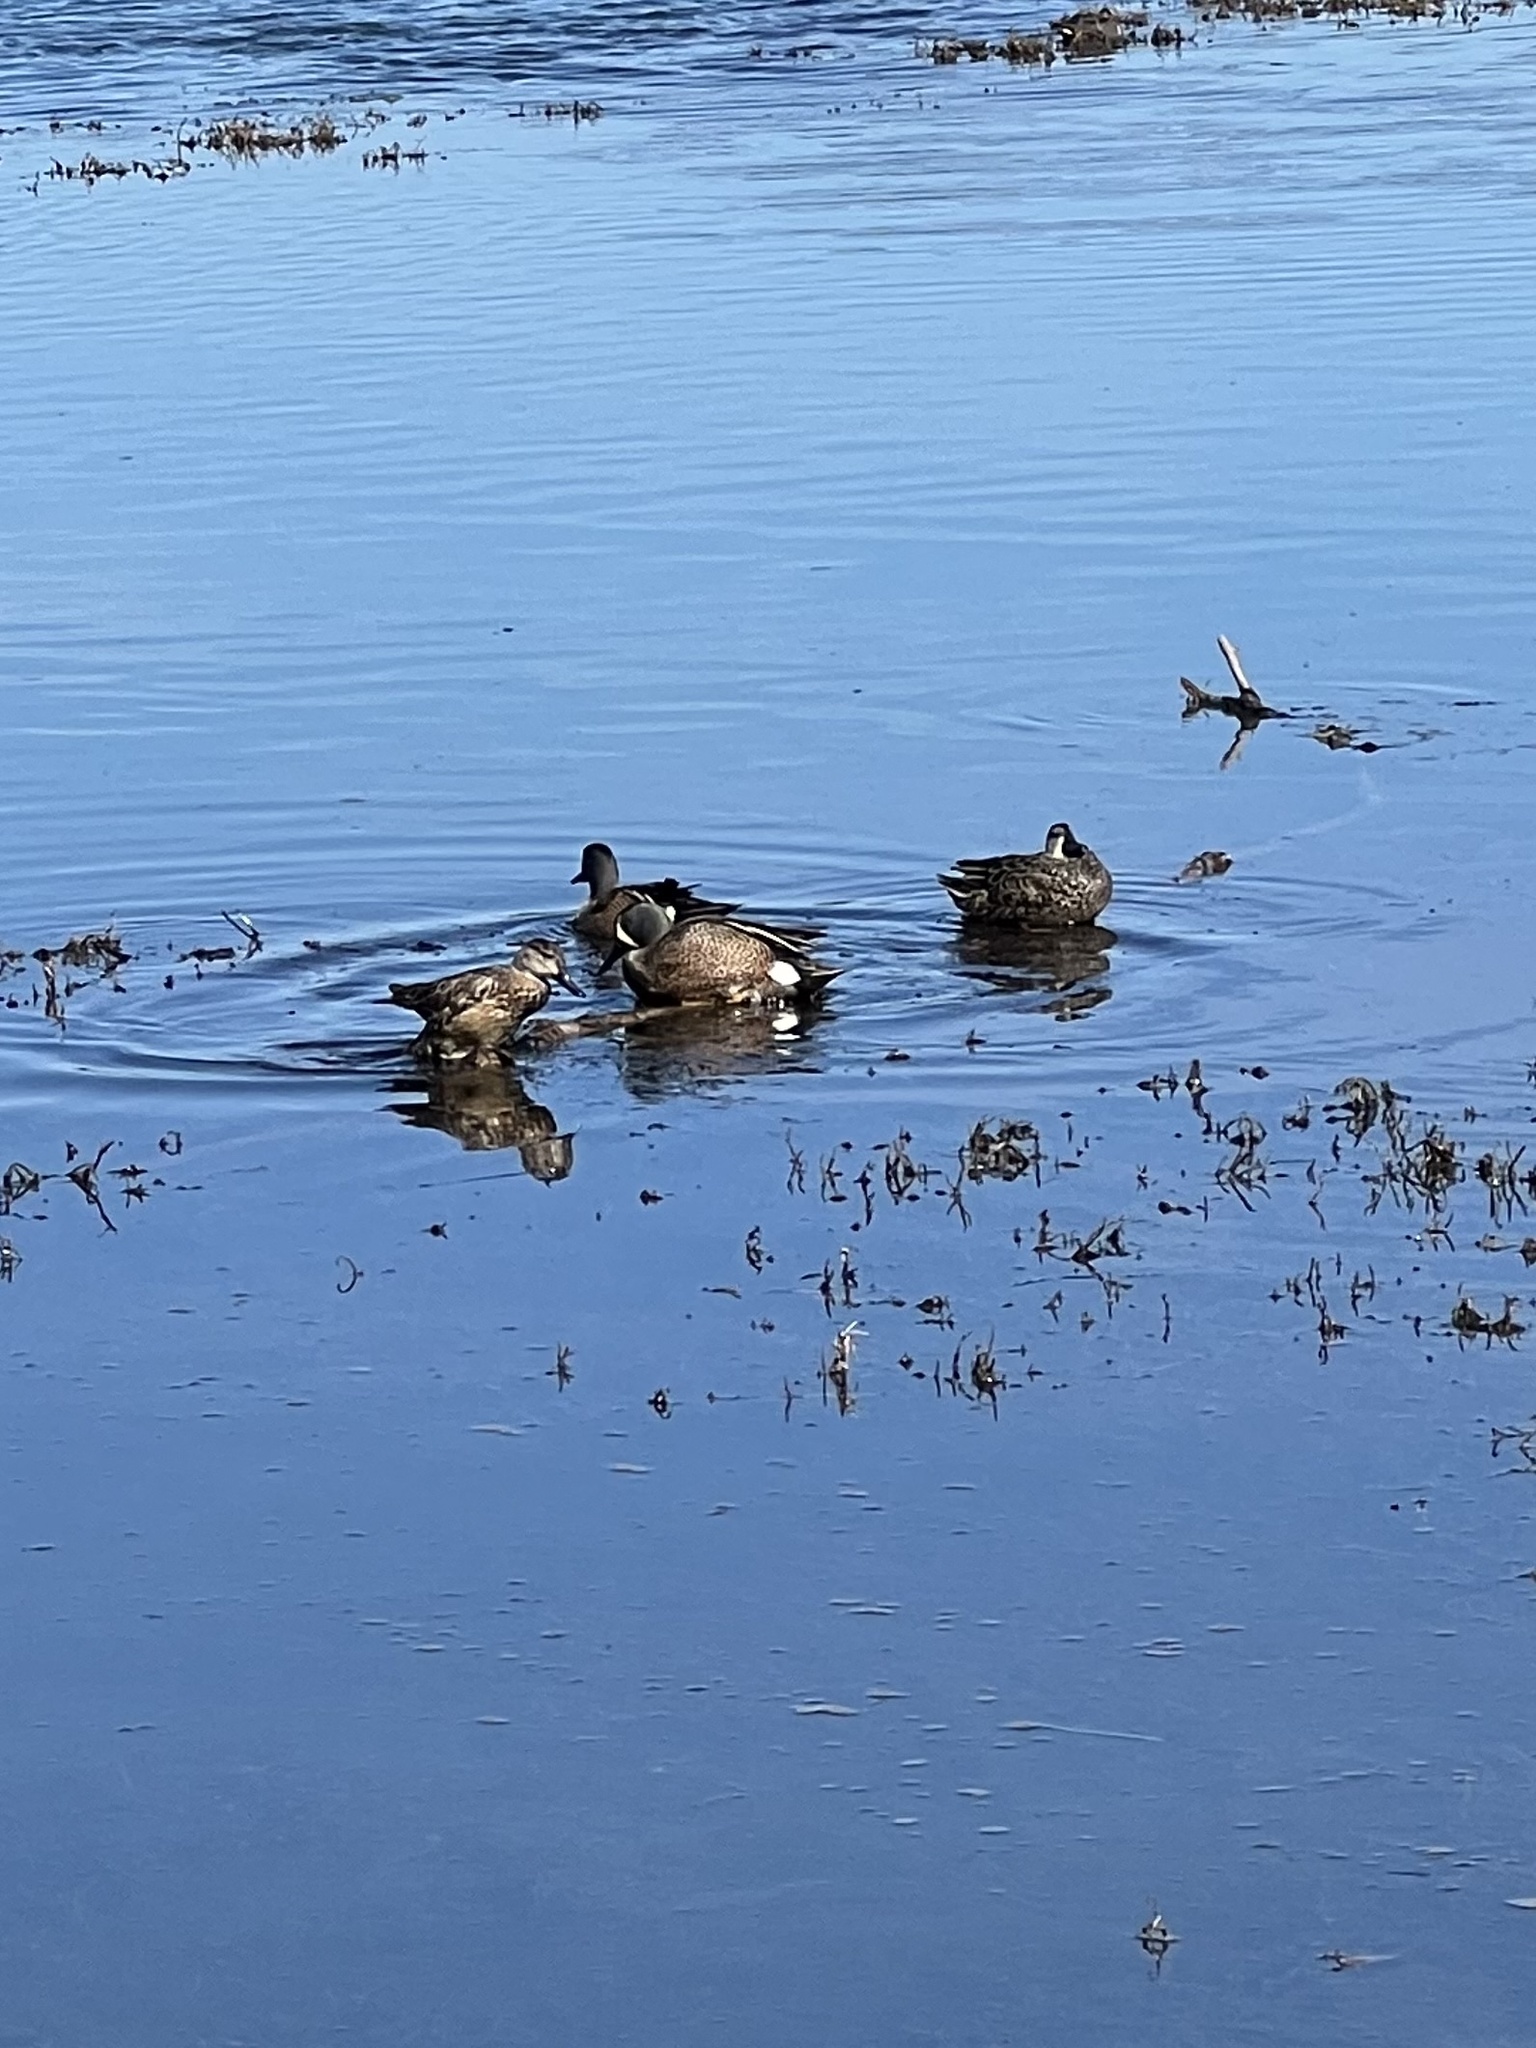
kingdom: Animalia
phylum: Chordata
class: Aves
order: Anseriformes
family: Anatidae
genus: Spatula
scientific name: Spatula discors
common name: Blue-winged teal
